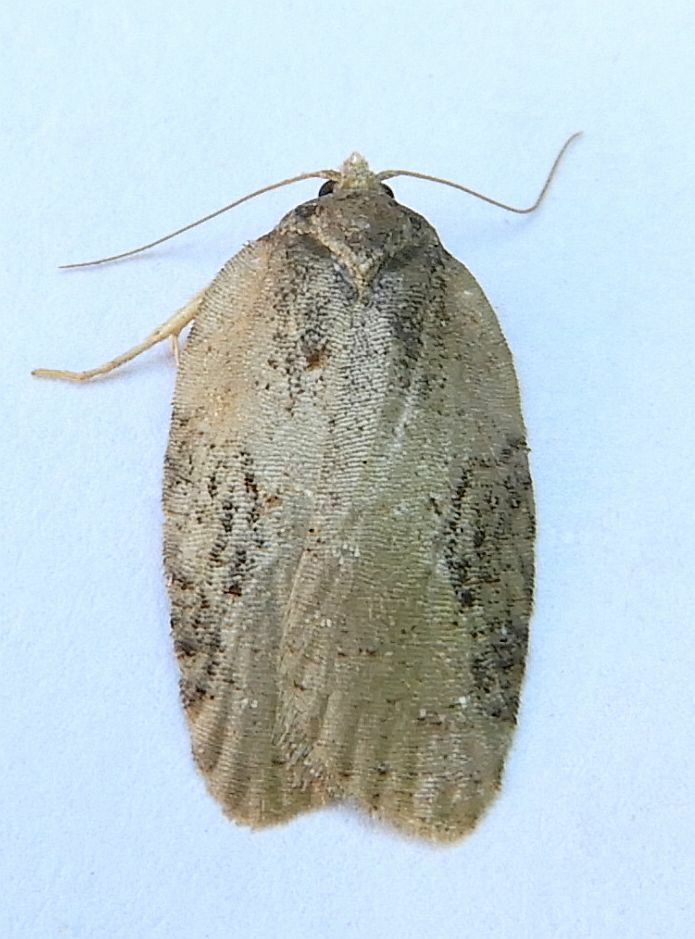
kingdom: Animalia
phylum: Arthropoda
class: Insecta
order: Lepidoptera
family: Tortricidae
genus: Acleris
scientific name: Acleris chalybeana
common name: Lesser maple leafroller
